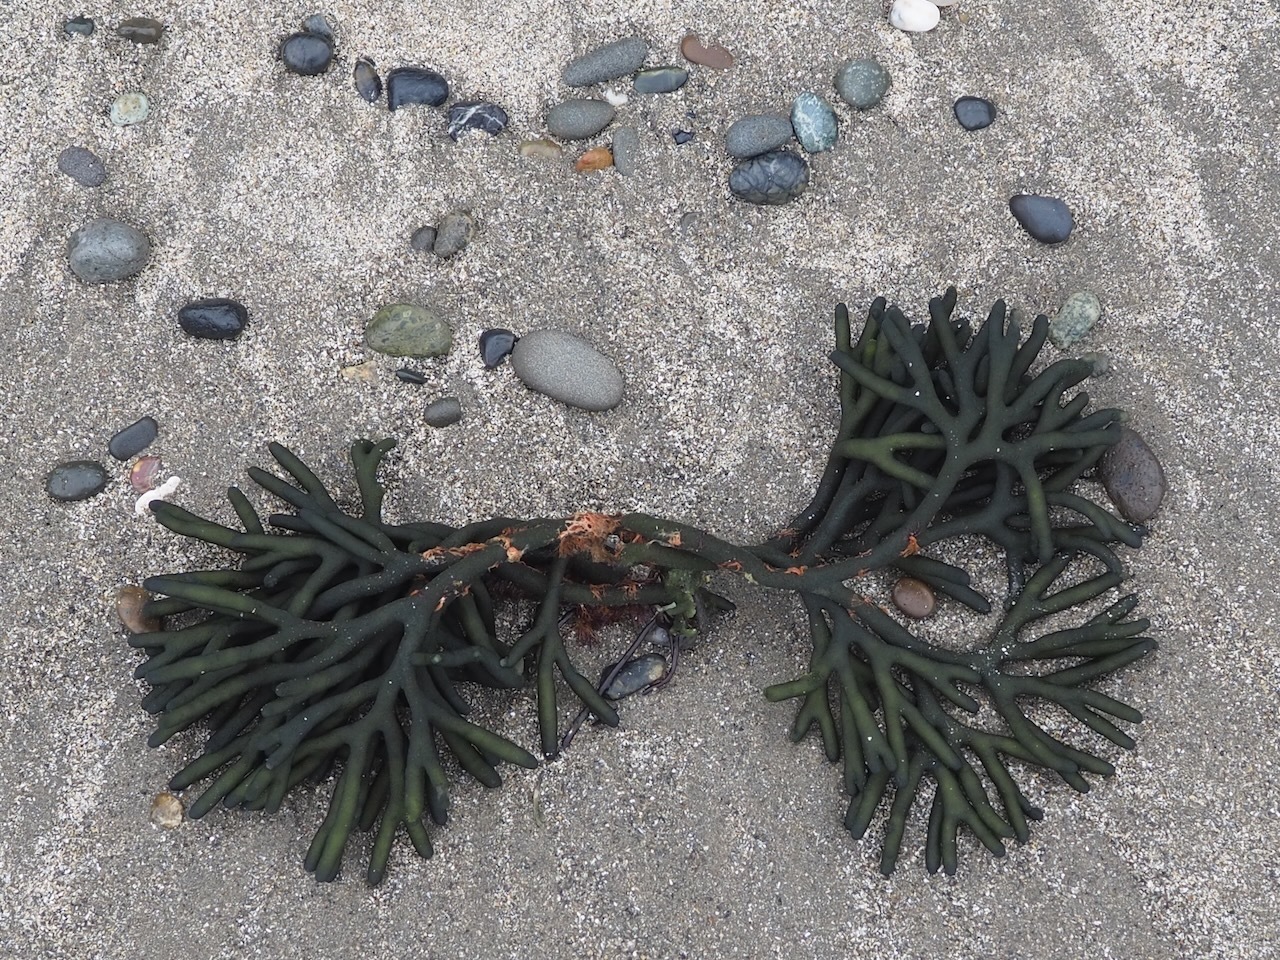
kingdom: Plantae
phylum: Chlorophyta
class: Ulvophyceae
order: Bryopsidales
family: Codiaceae
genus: Codium
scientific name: Codium fragile
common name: Dead man's fingers
